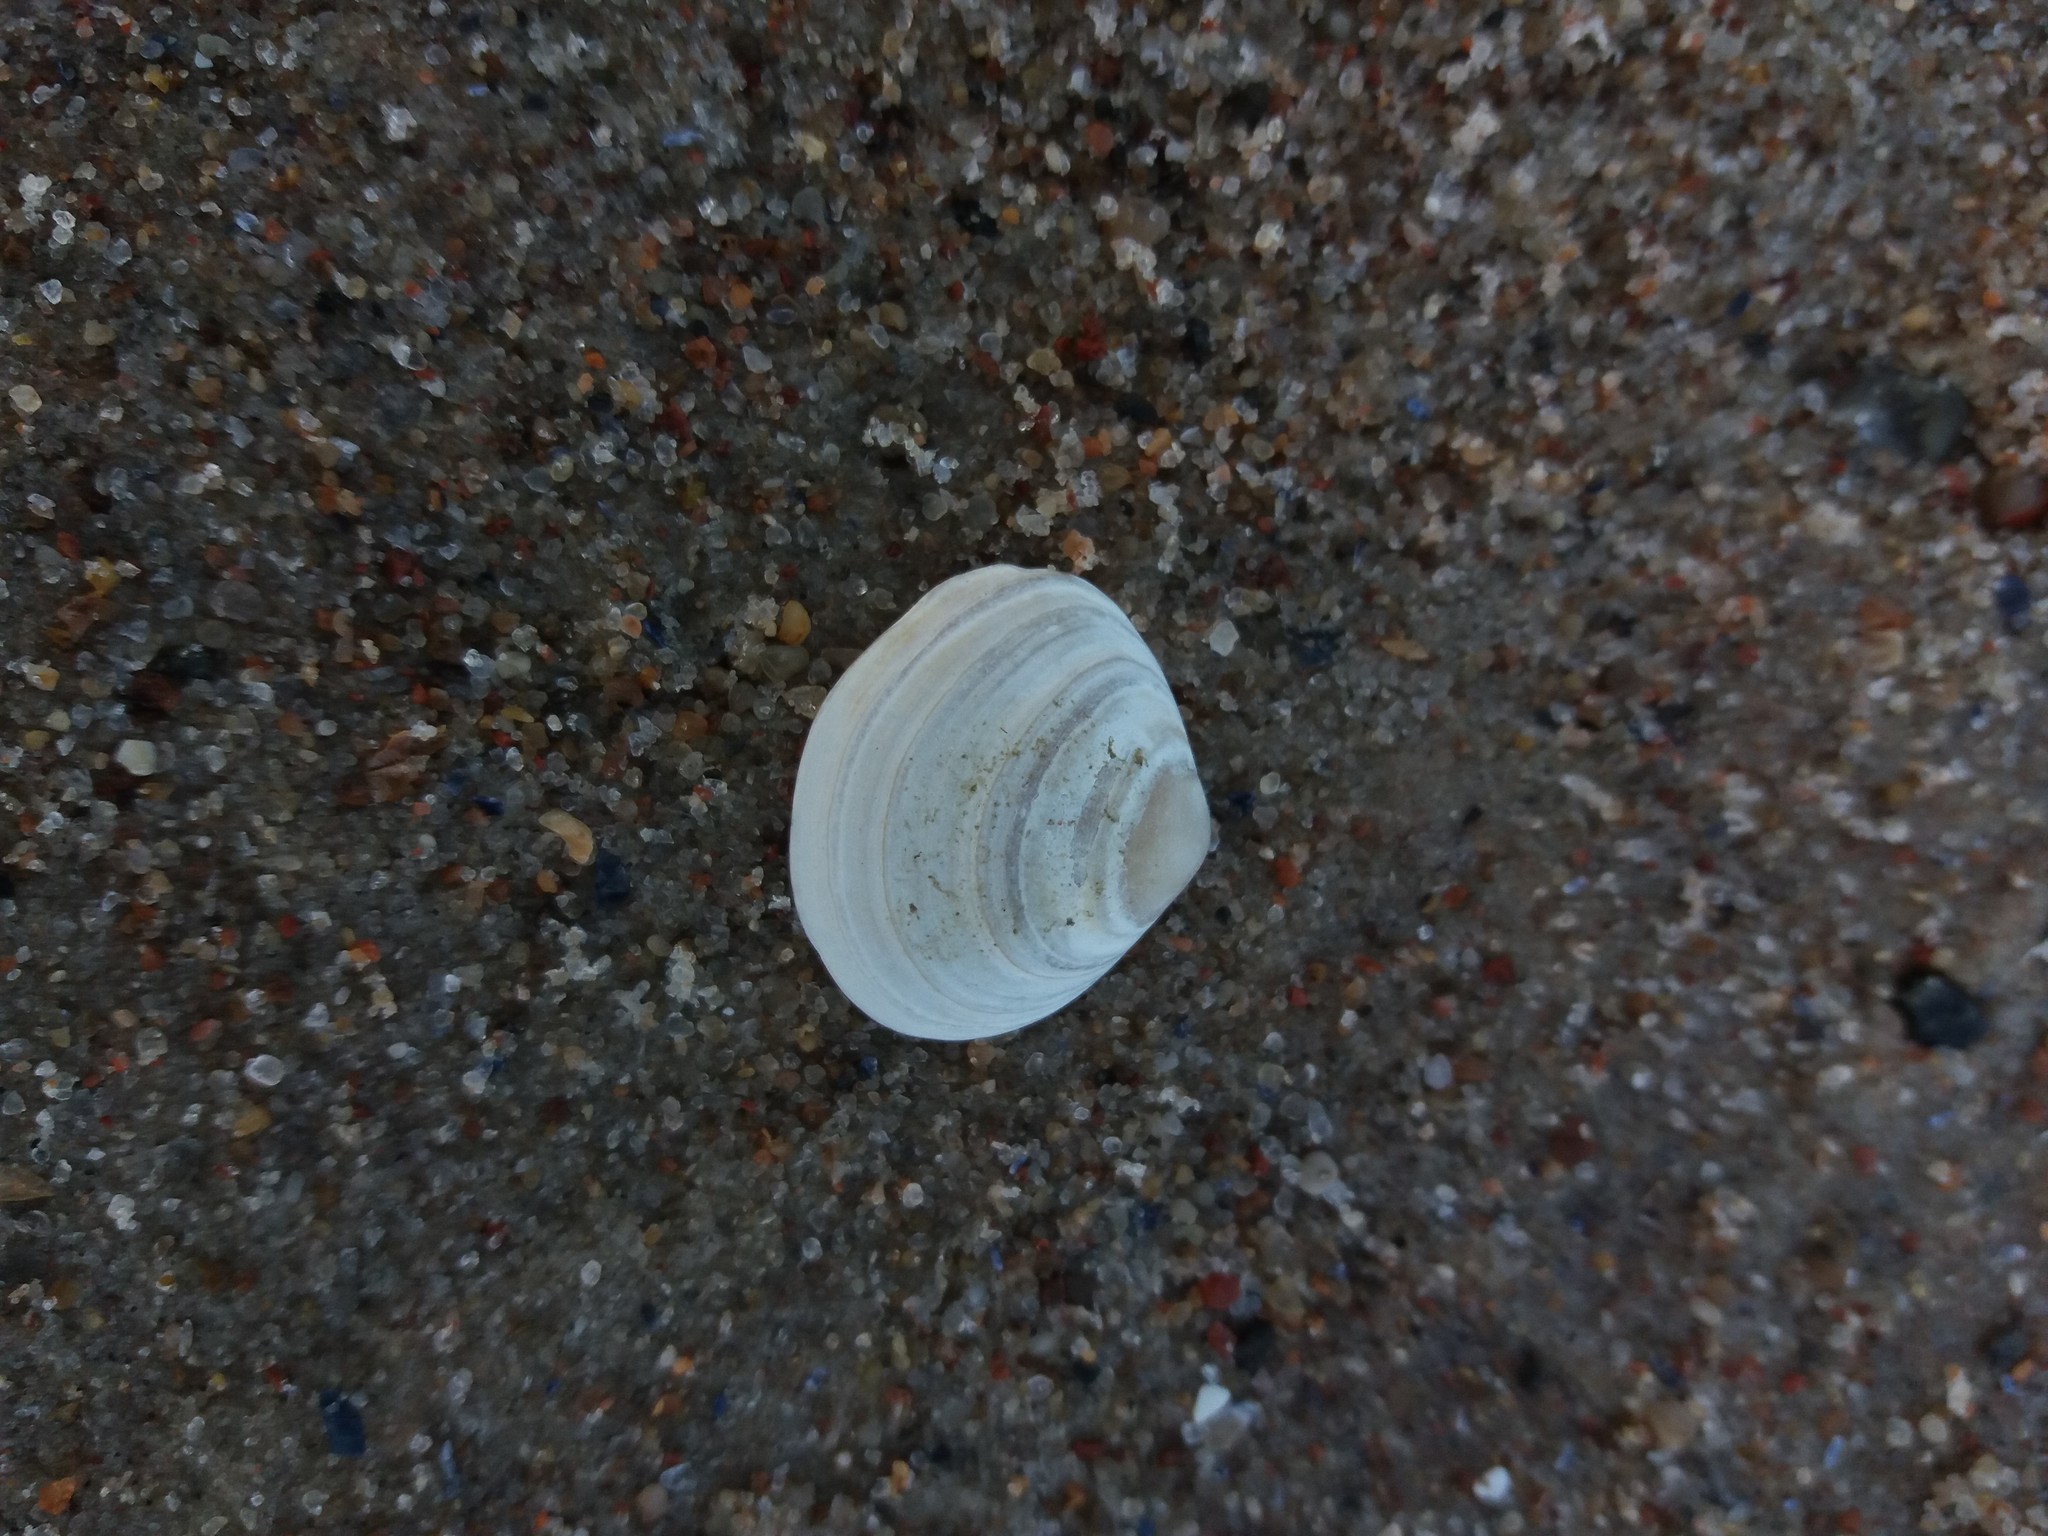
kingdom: Animalia
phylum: Mollusca
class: Bivalvia
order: Cardiida
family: Tellinidae
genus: Macoma
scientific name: Macoma balthica
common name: Baltic tellin
